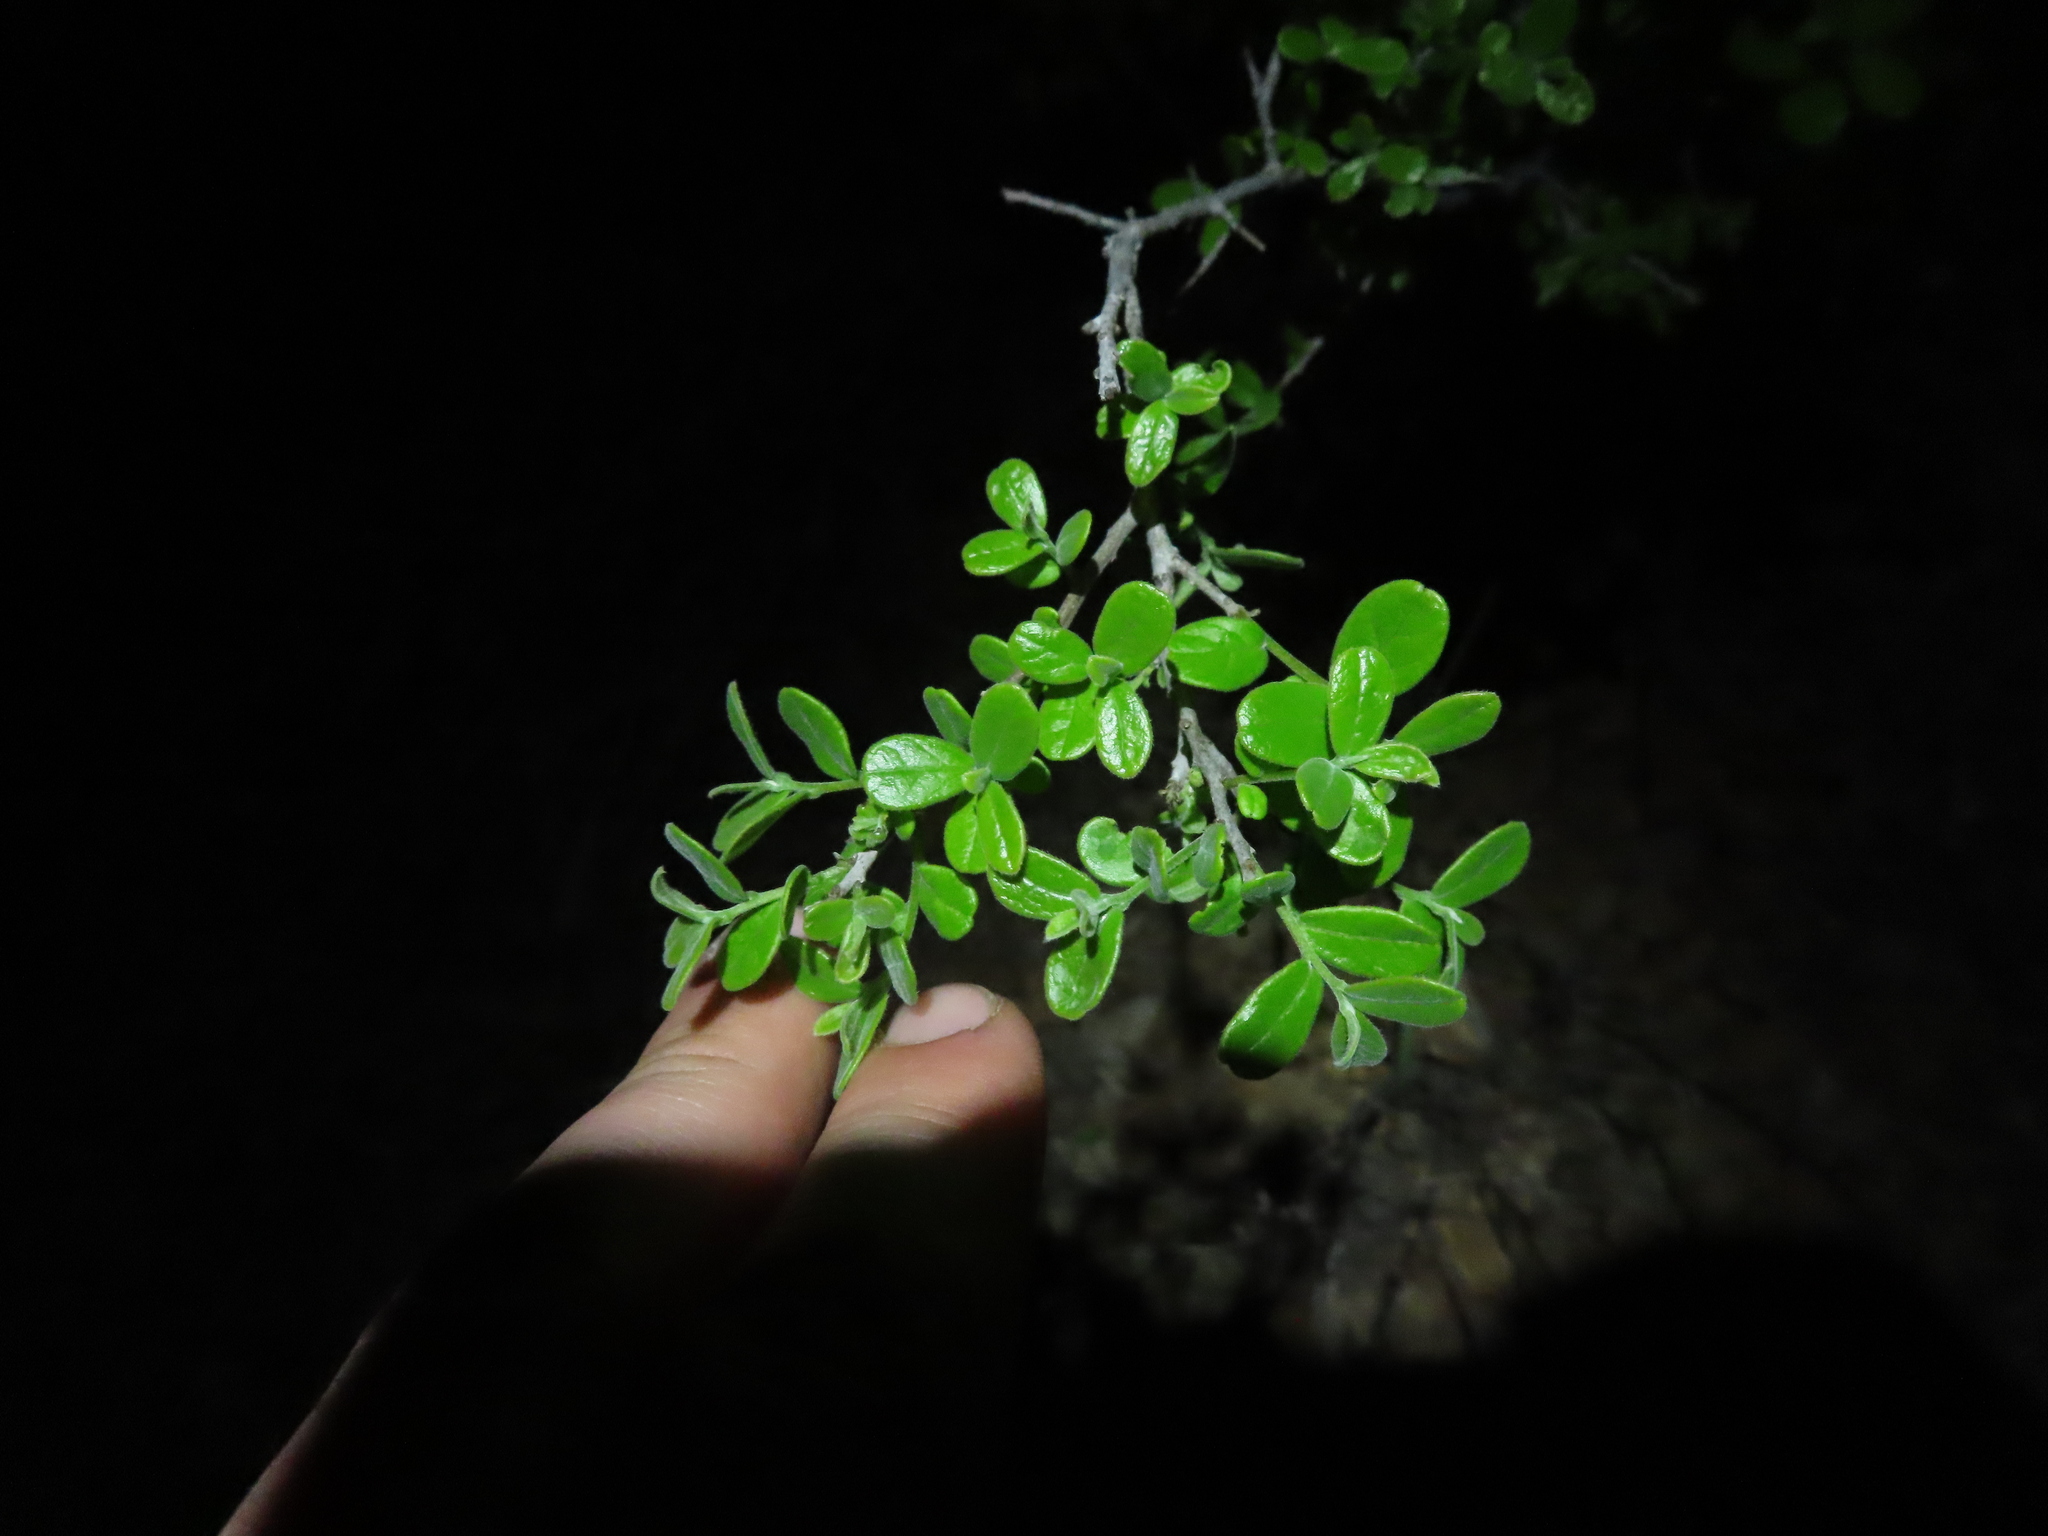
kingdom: Plantae
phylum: Tracheophyta
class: Magnoliopsida
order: Ericales
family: Ebenaceae
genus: Diospyros
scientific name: Diospyros texana
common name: Texas persimmon
